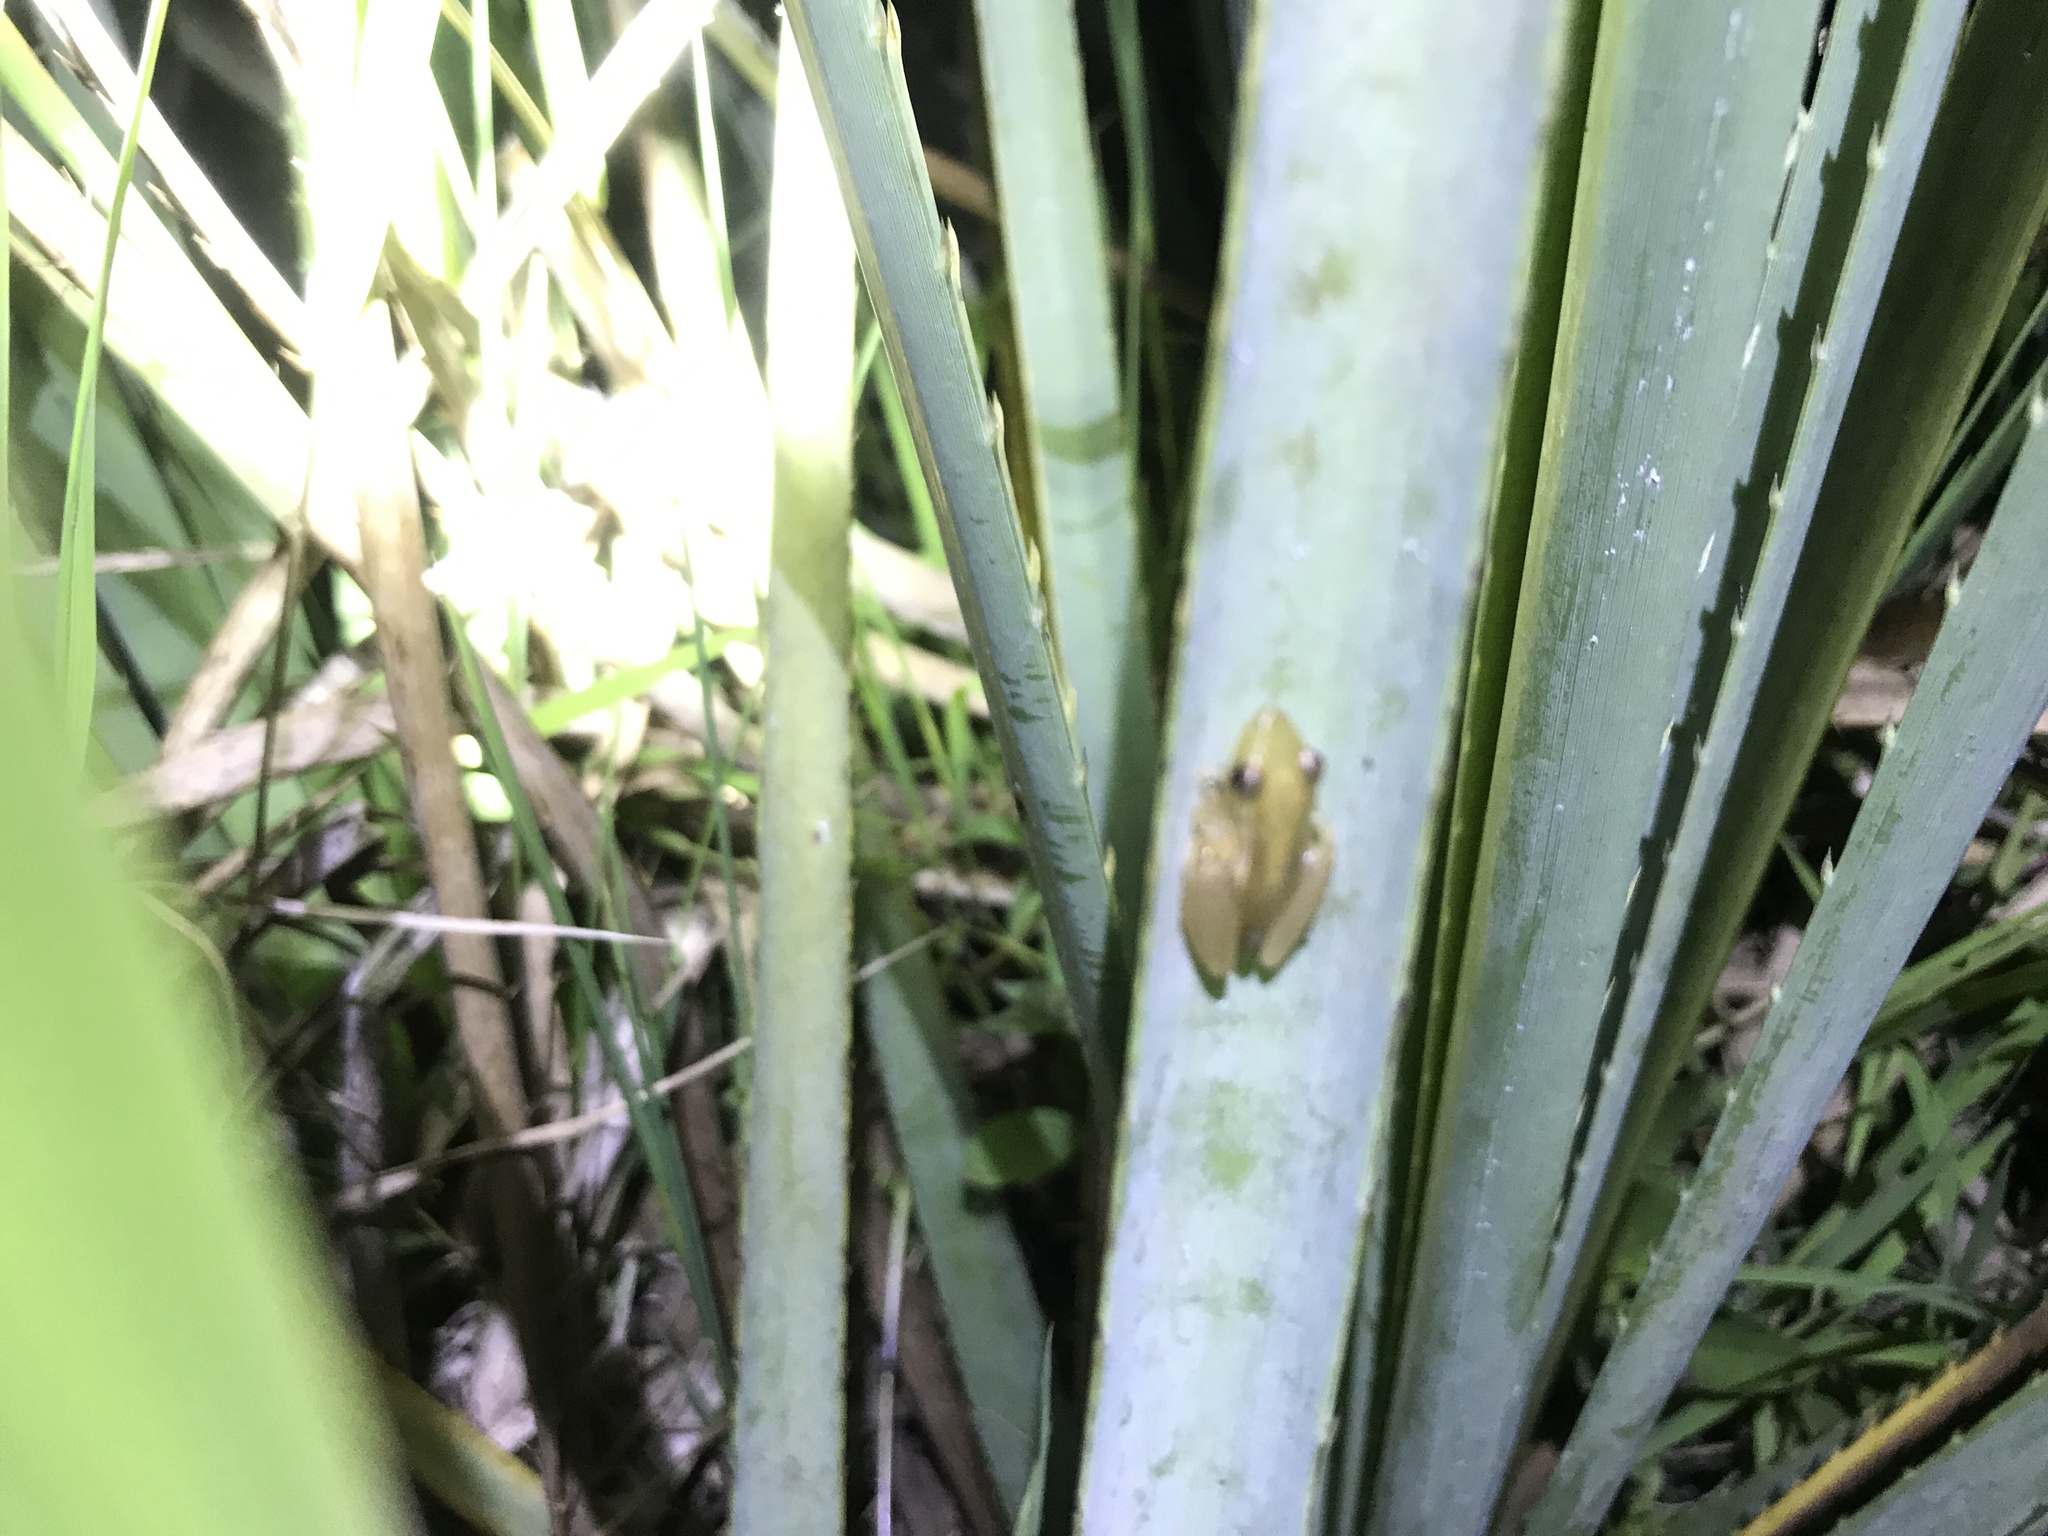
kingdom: Animalia
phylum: Chordata
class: Amphibia
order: Anura
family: Hylidae
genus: Scinax
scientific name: Scinax squalirostris
